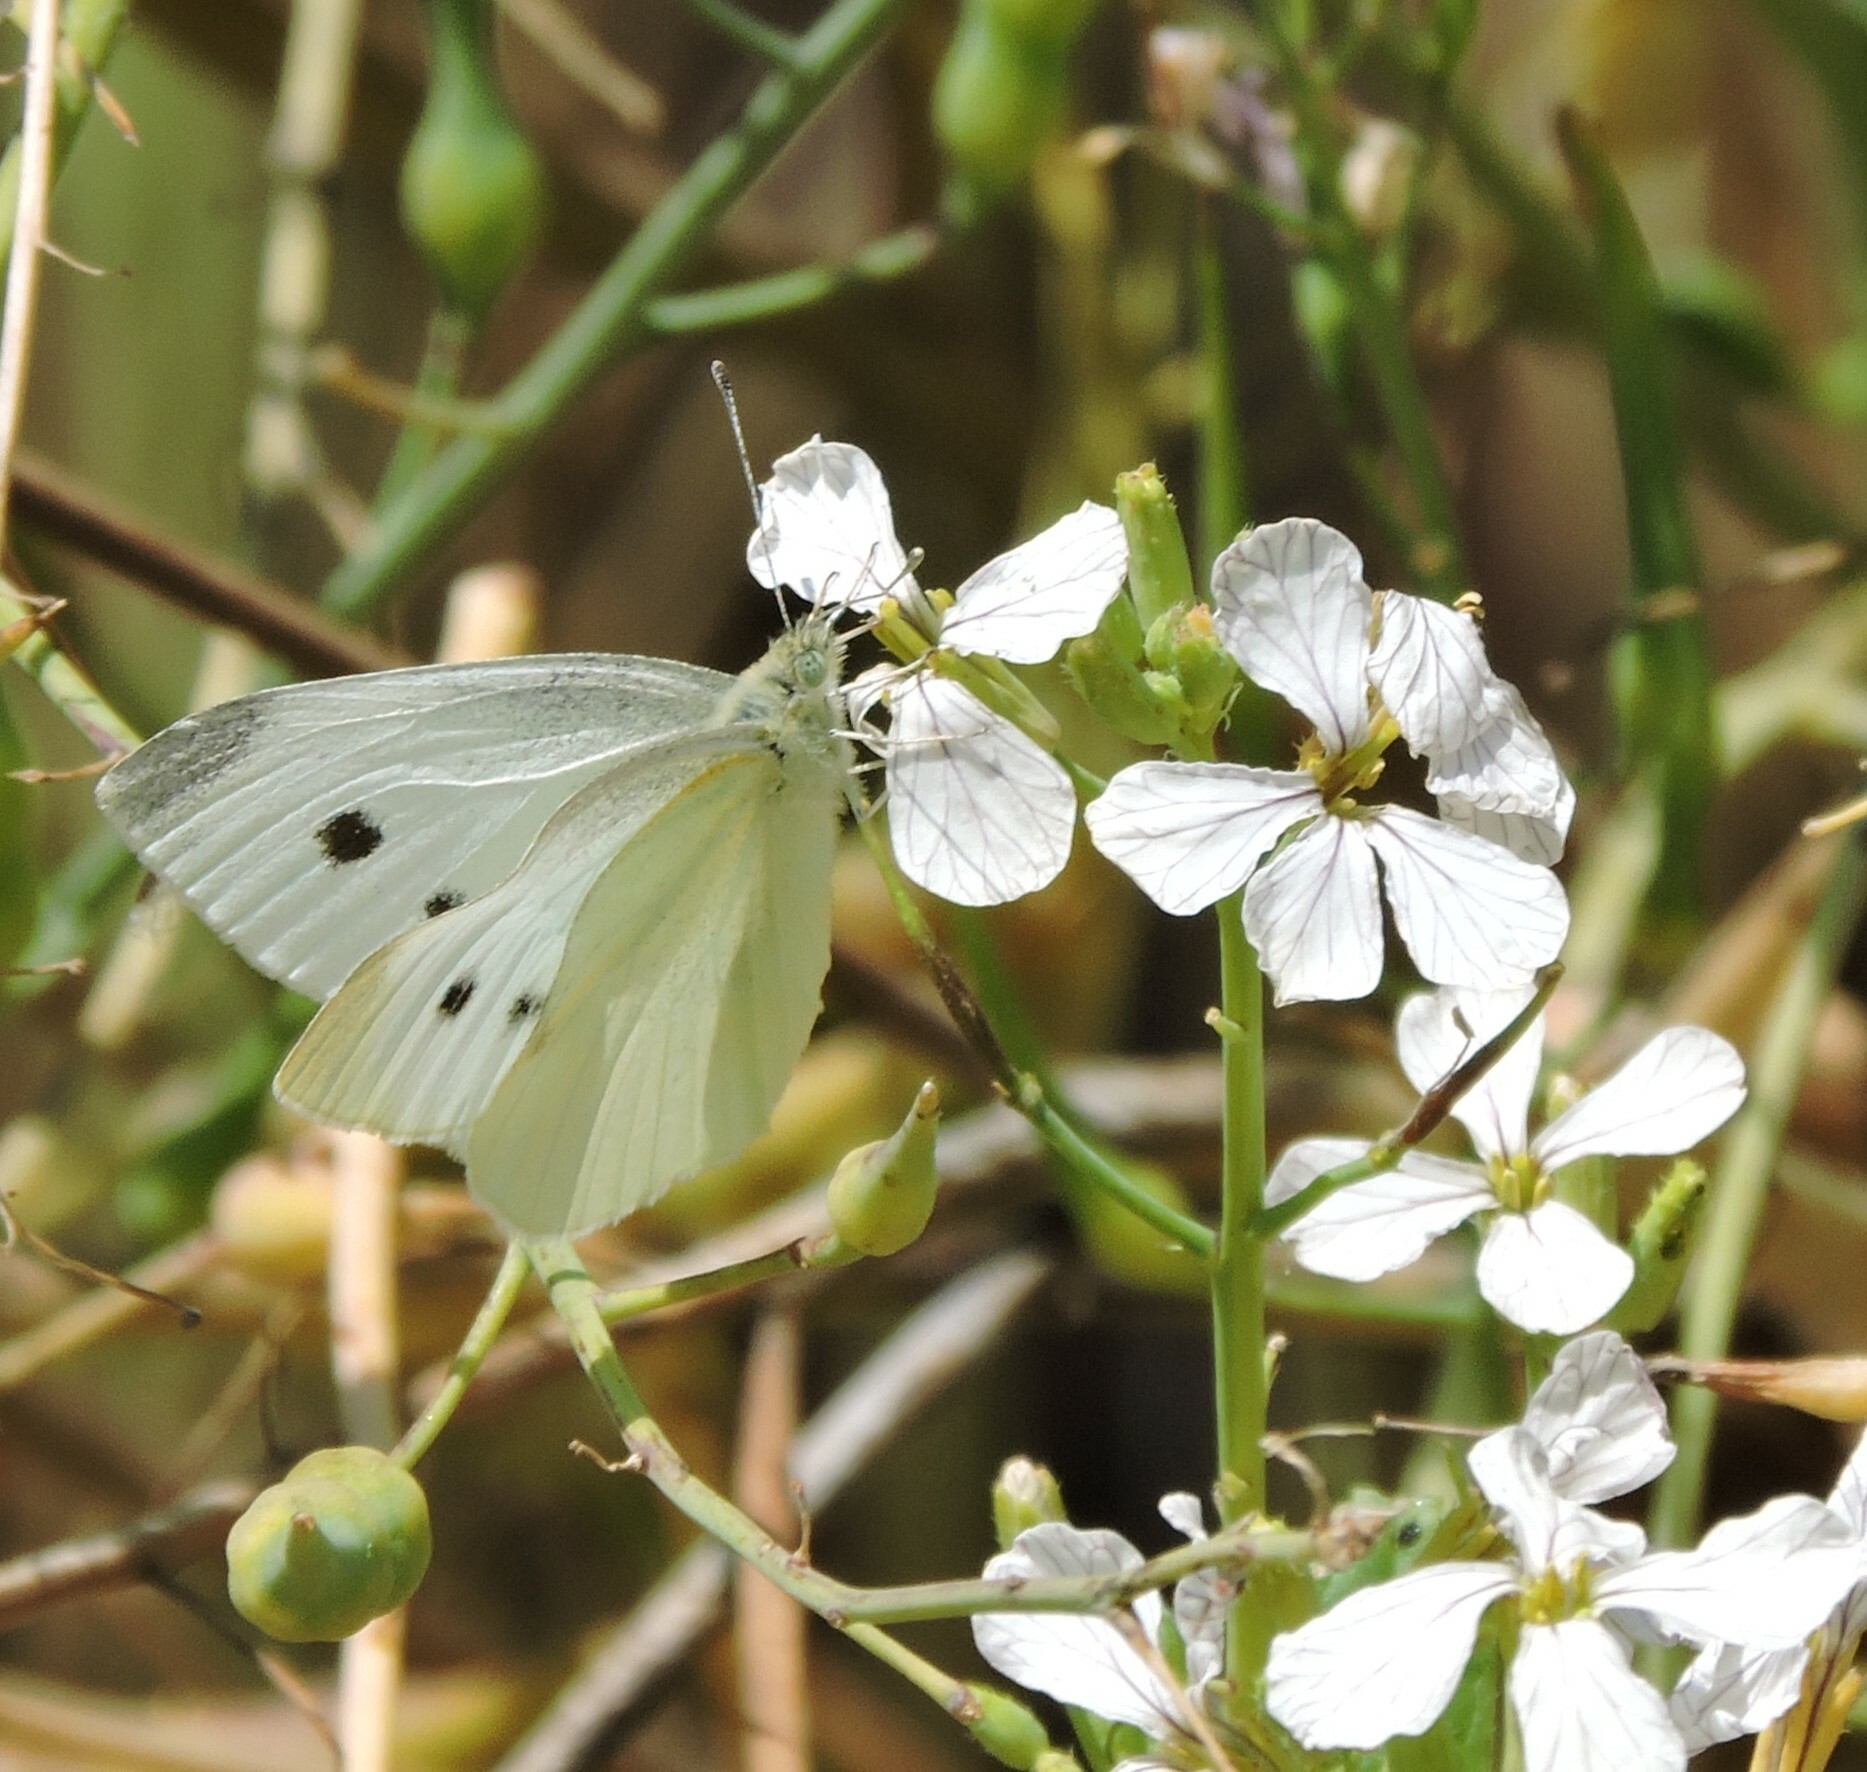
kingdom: Animalia
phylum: Arthropoda
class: Insecta
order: Lepidoptera
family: Pieridae
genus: Pieris
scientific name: Pieris rapae
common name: Small white
